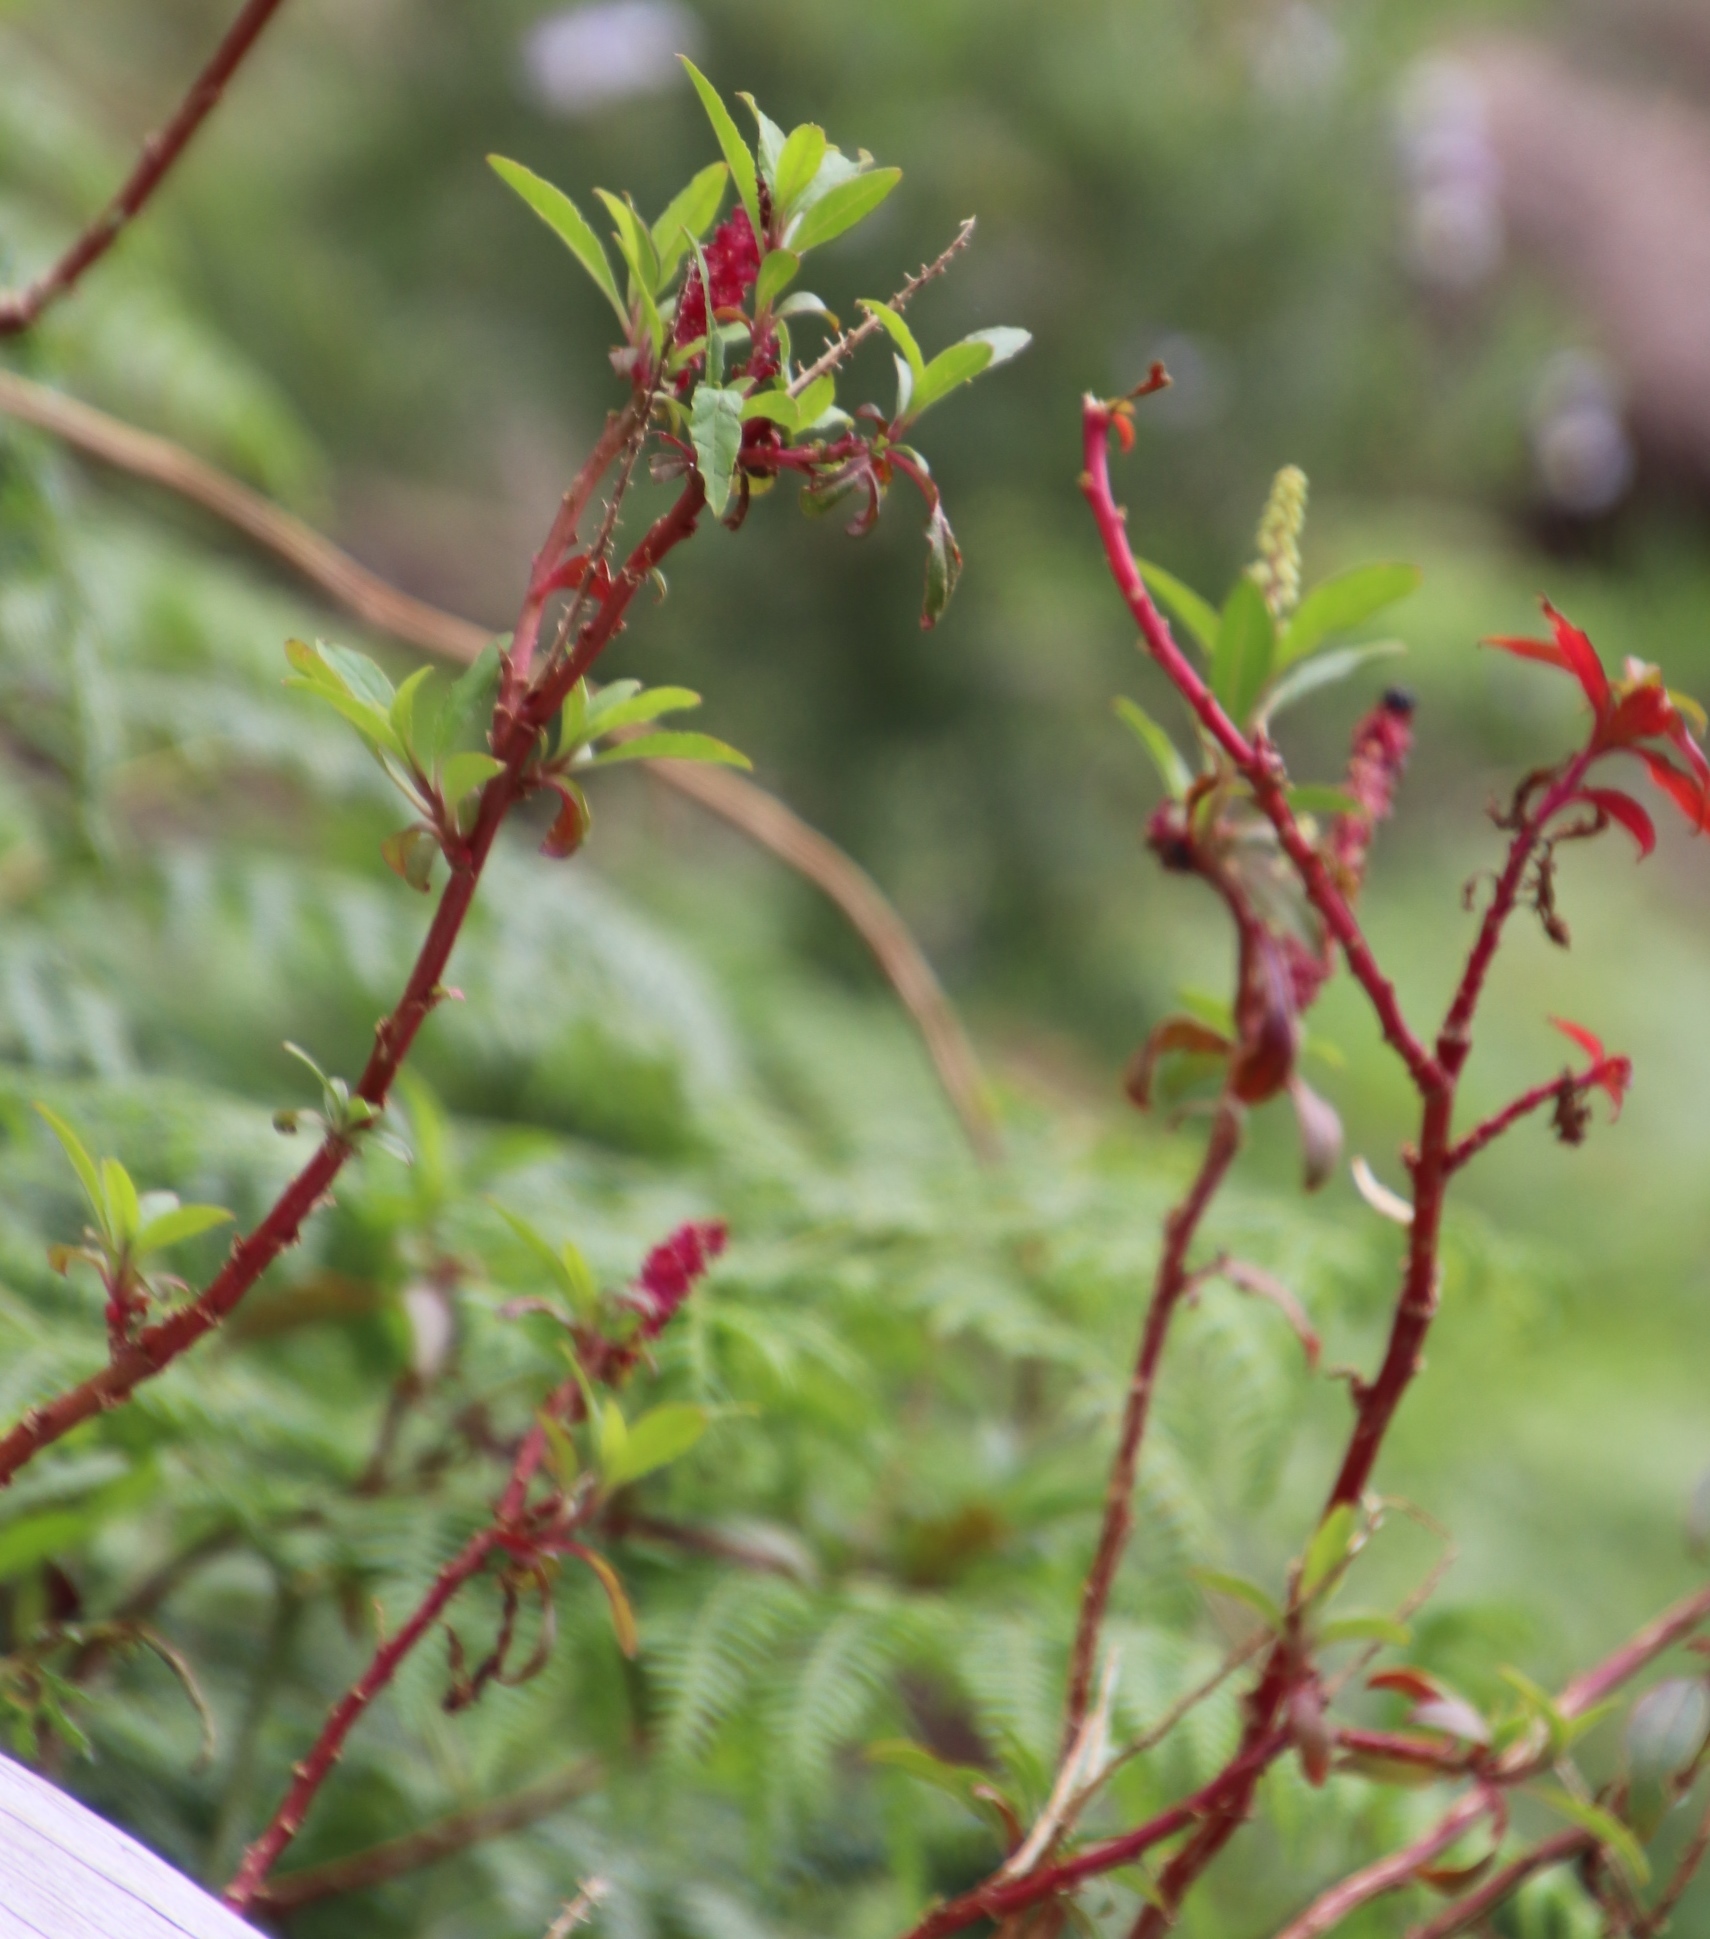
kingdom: Plantae
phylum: Tracheophyta
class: Magnoliopsida
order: Caryophyllales
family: Phytolaccaceae
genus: Phytolacca
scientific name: Phytolacca icosandra
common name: Button pokeweed
